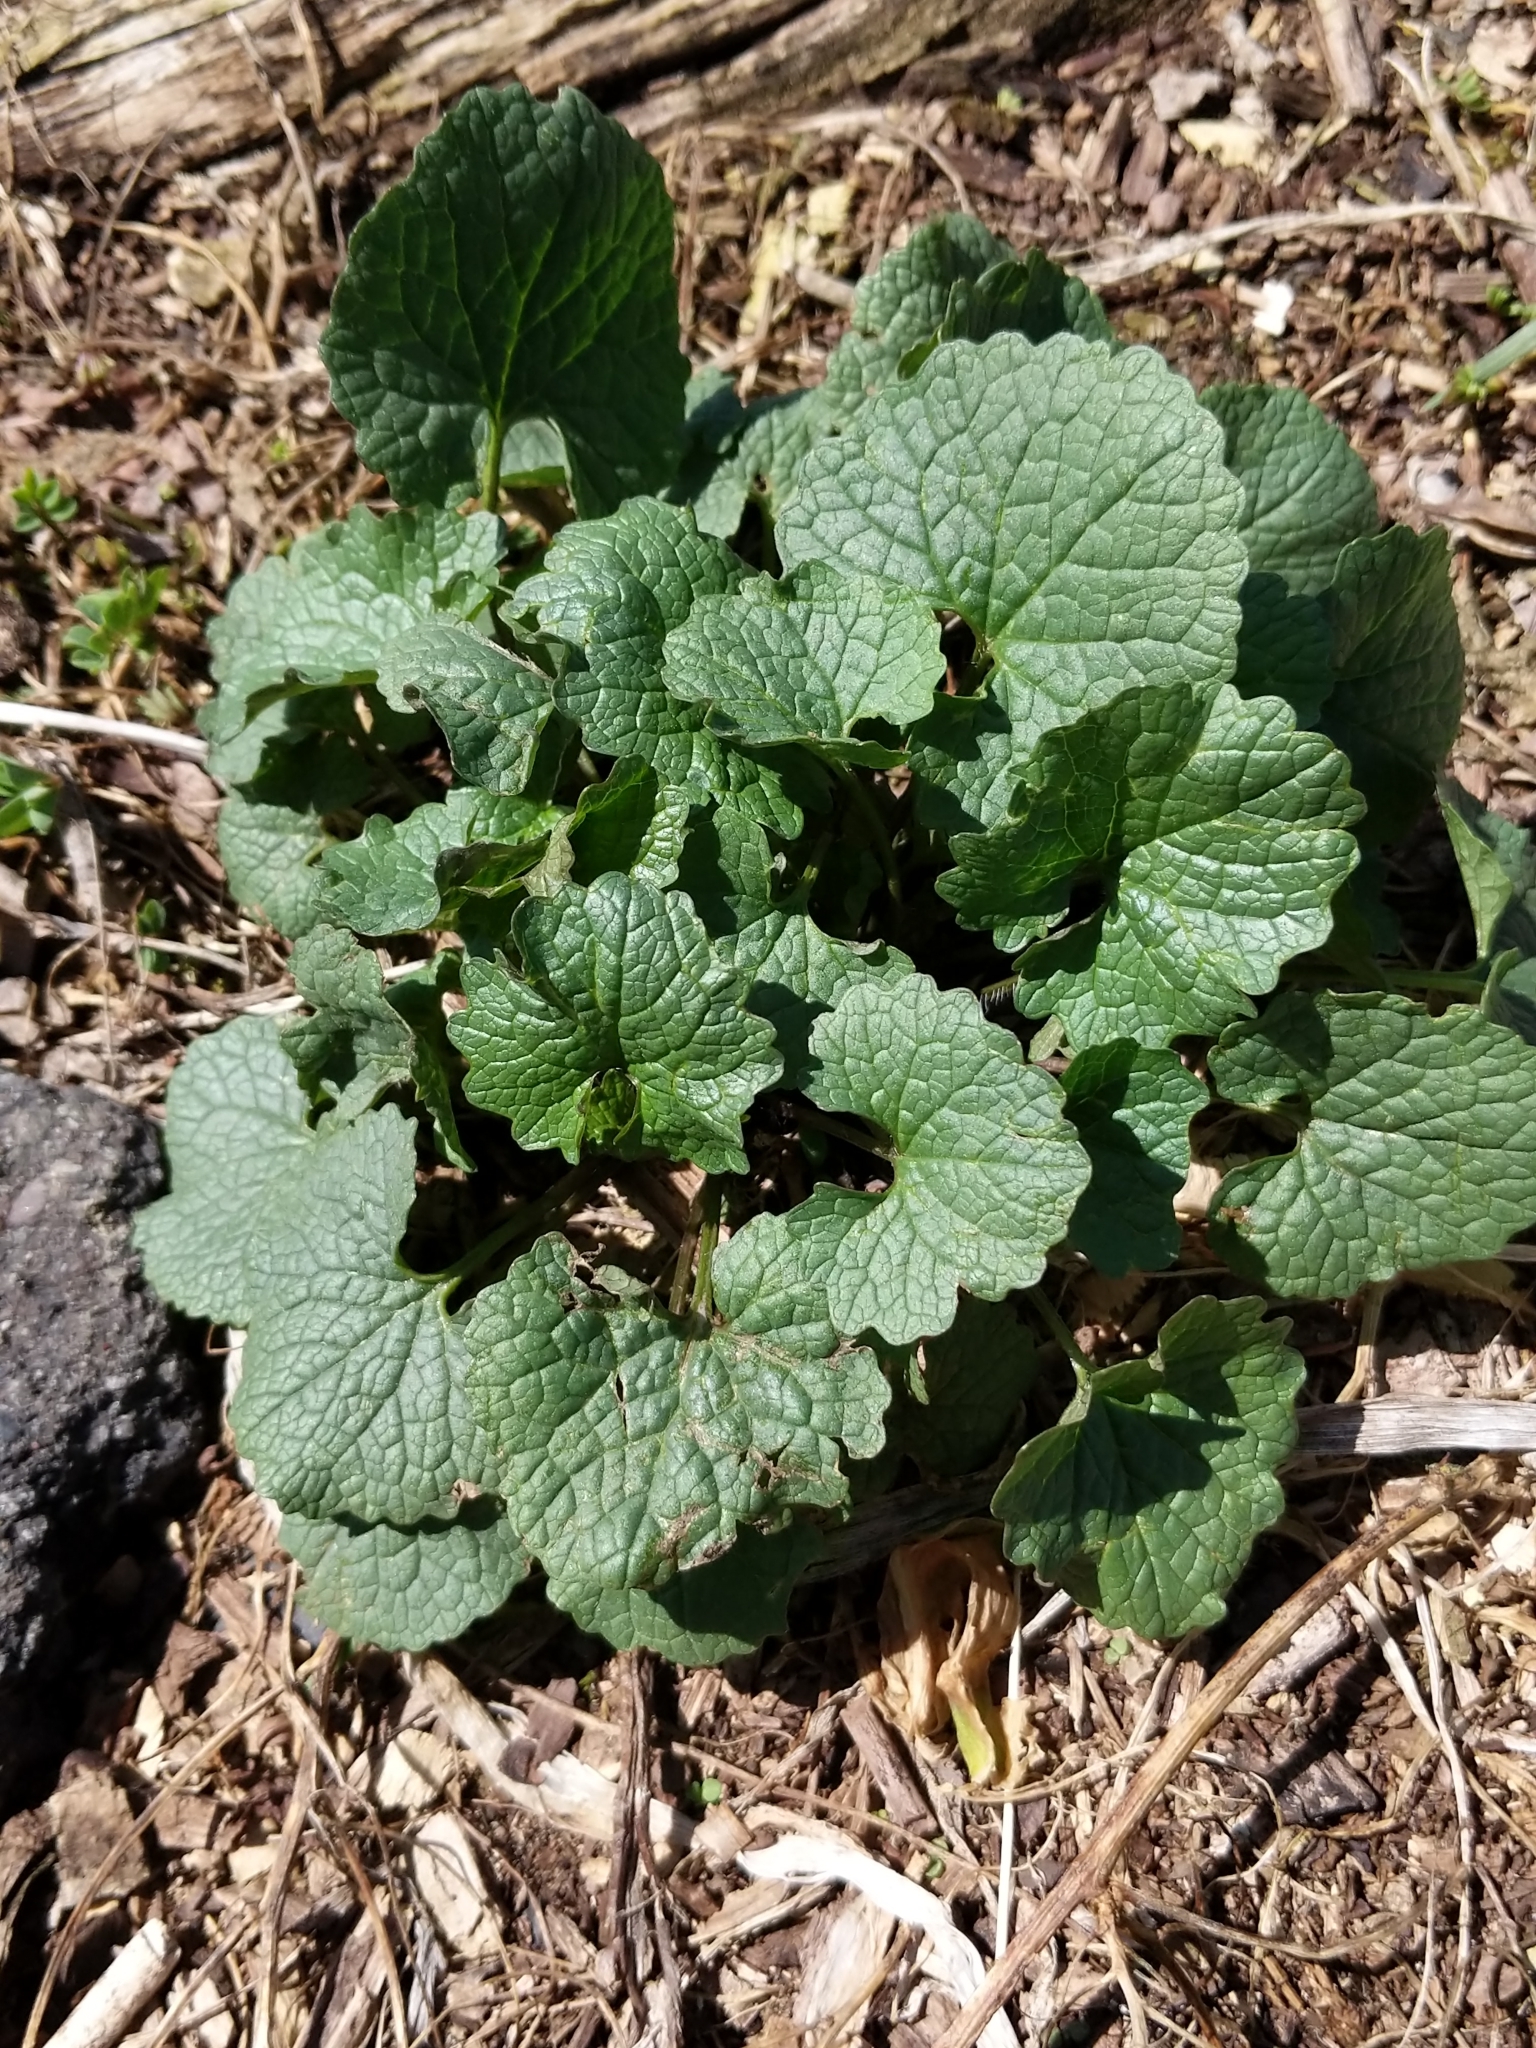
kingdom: Plantae
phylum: Tracheophyta
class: Magnoliopsida
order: Brassicales
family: Brassicaceae
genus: Alliaria
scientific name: Alliaria petiolata
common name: Garlic mustard
